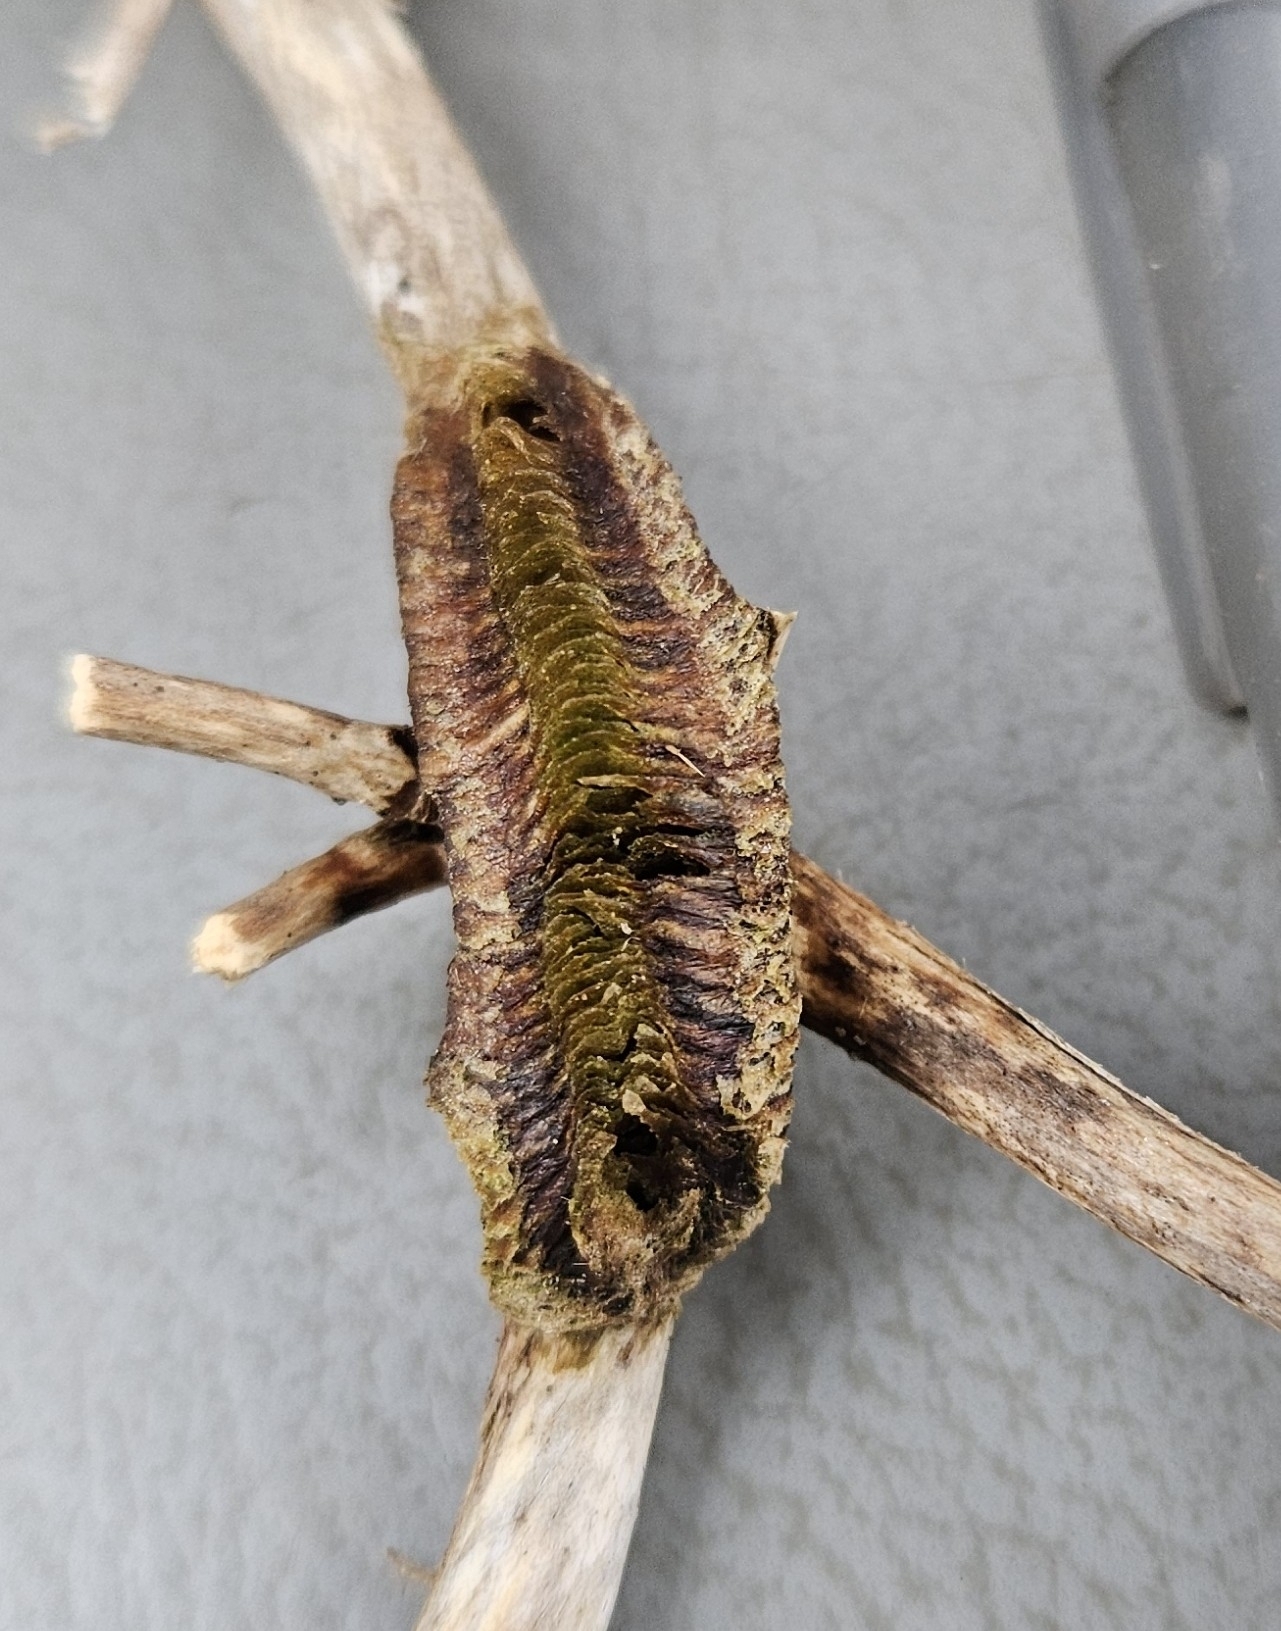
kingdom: Animalia
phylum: Arthropoda
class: Insecta
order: Mantodea
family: Mantidae
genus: Tenodera
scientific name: Tenodera angustipennis
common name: Asian mantis
